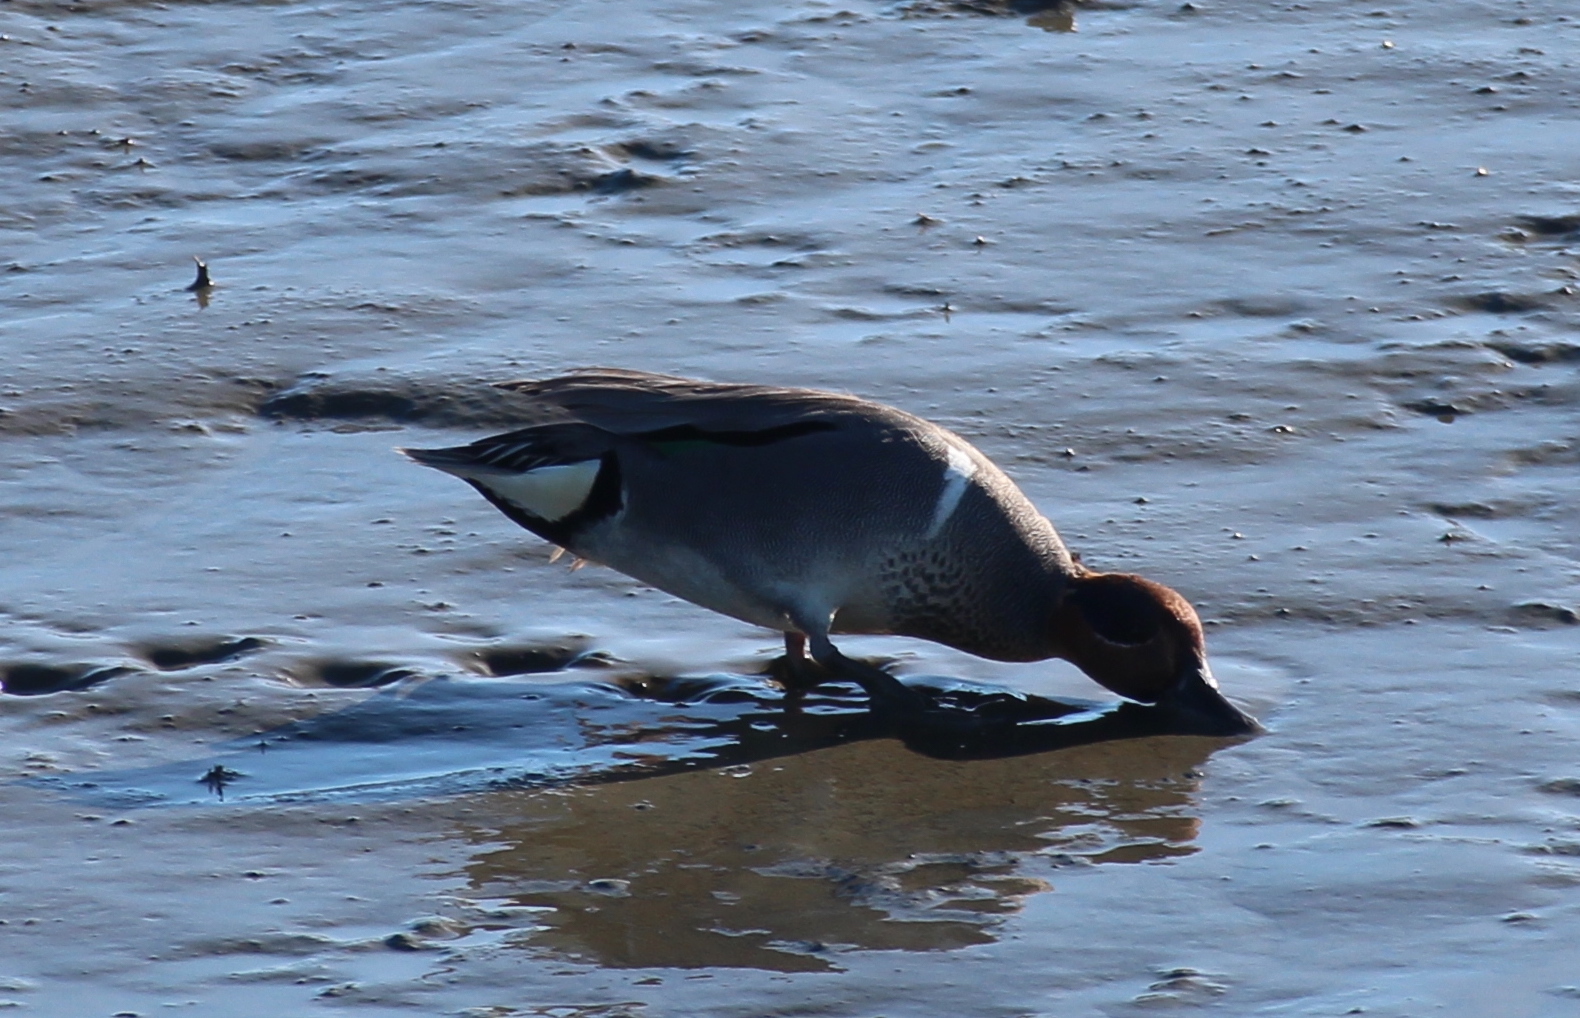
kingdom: Animalia
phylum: Chordata
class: Aves
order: Anseriformes
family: Anatidae
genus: Anas
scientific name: Anas crecca
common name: Eurasian teal
